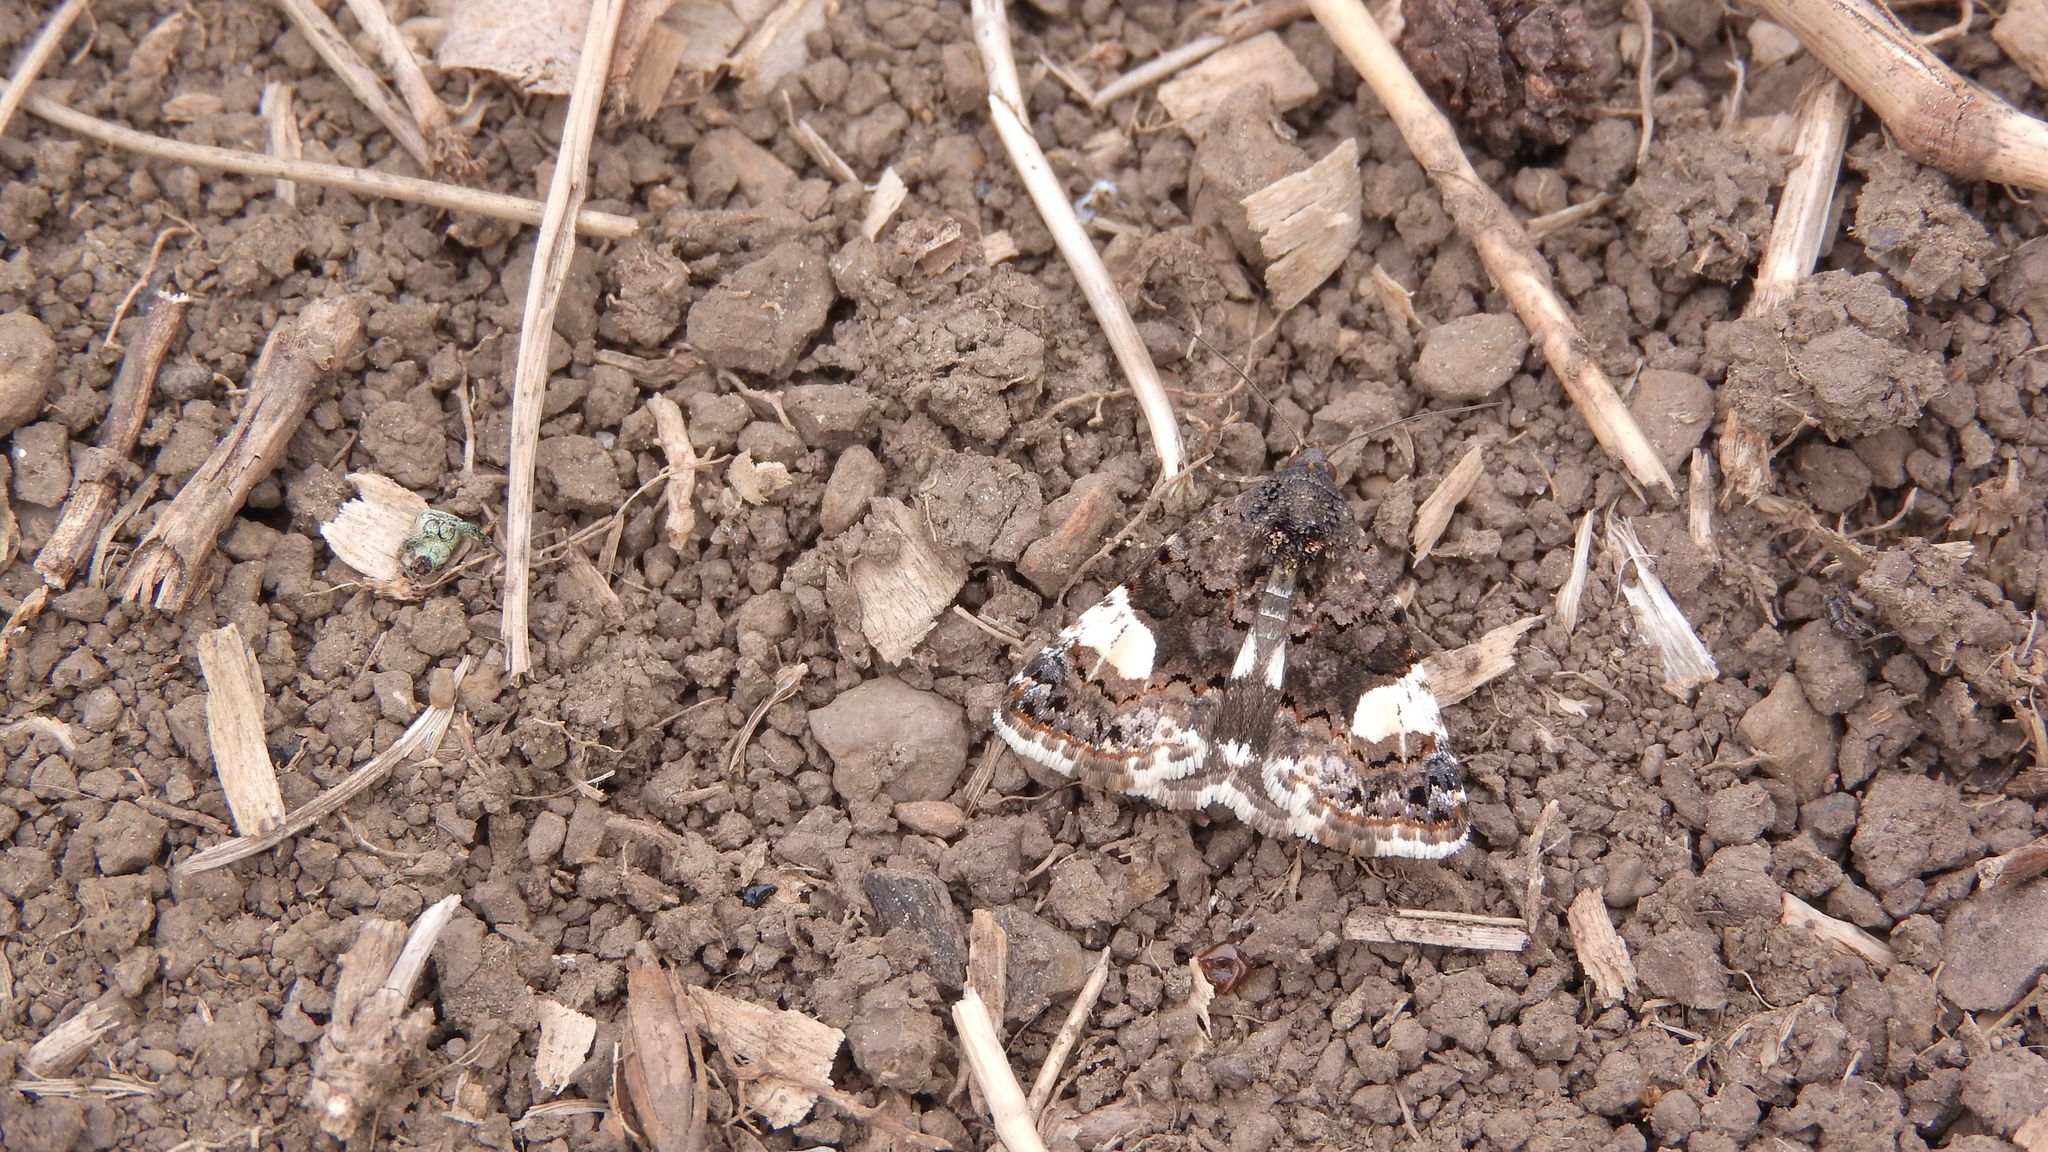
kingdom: Animalia
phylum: Arthropoda
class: Insecta
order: Lepidoptera
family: Erebidae
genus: Tyta
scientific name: Tyta luctuosa
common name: Four-spotted
